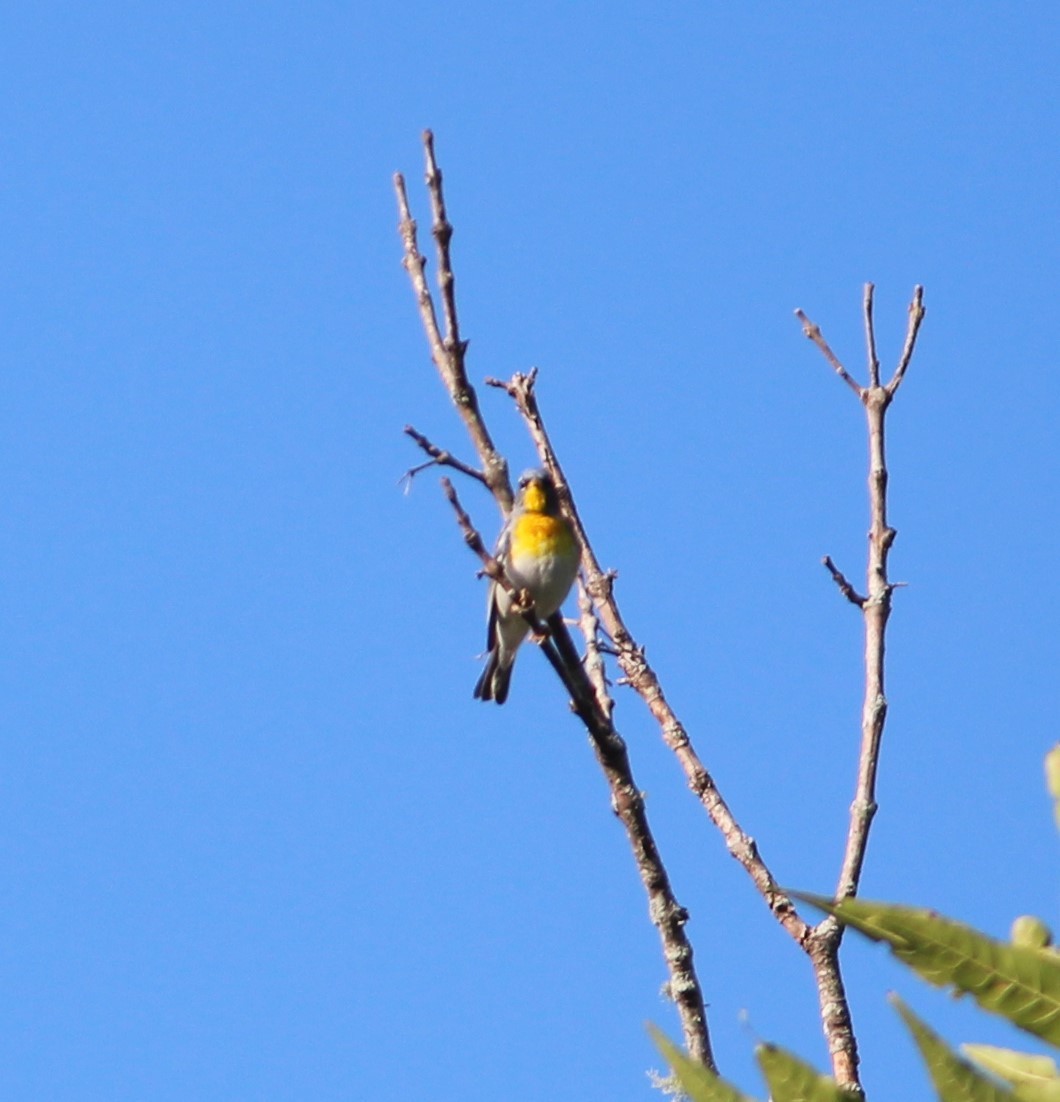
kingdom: Animalia
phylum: Chordata
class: Aves
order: Passeriformes
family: Parulidae
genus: Setophaga
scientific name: Setophaga americana
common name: Northern parula
